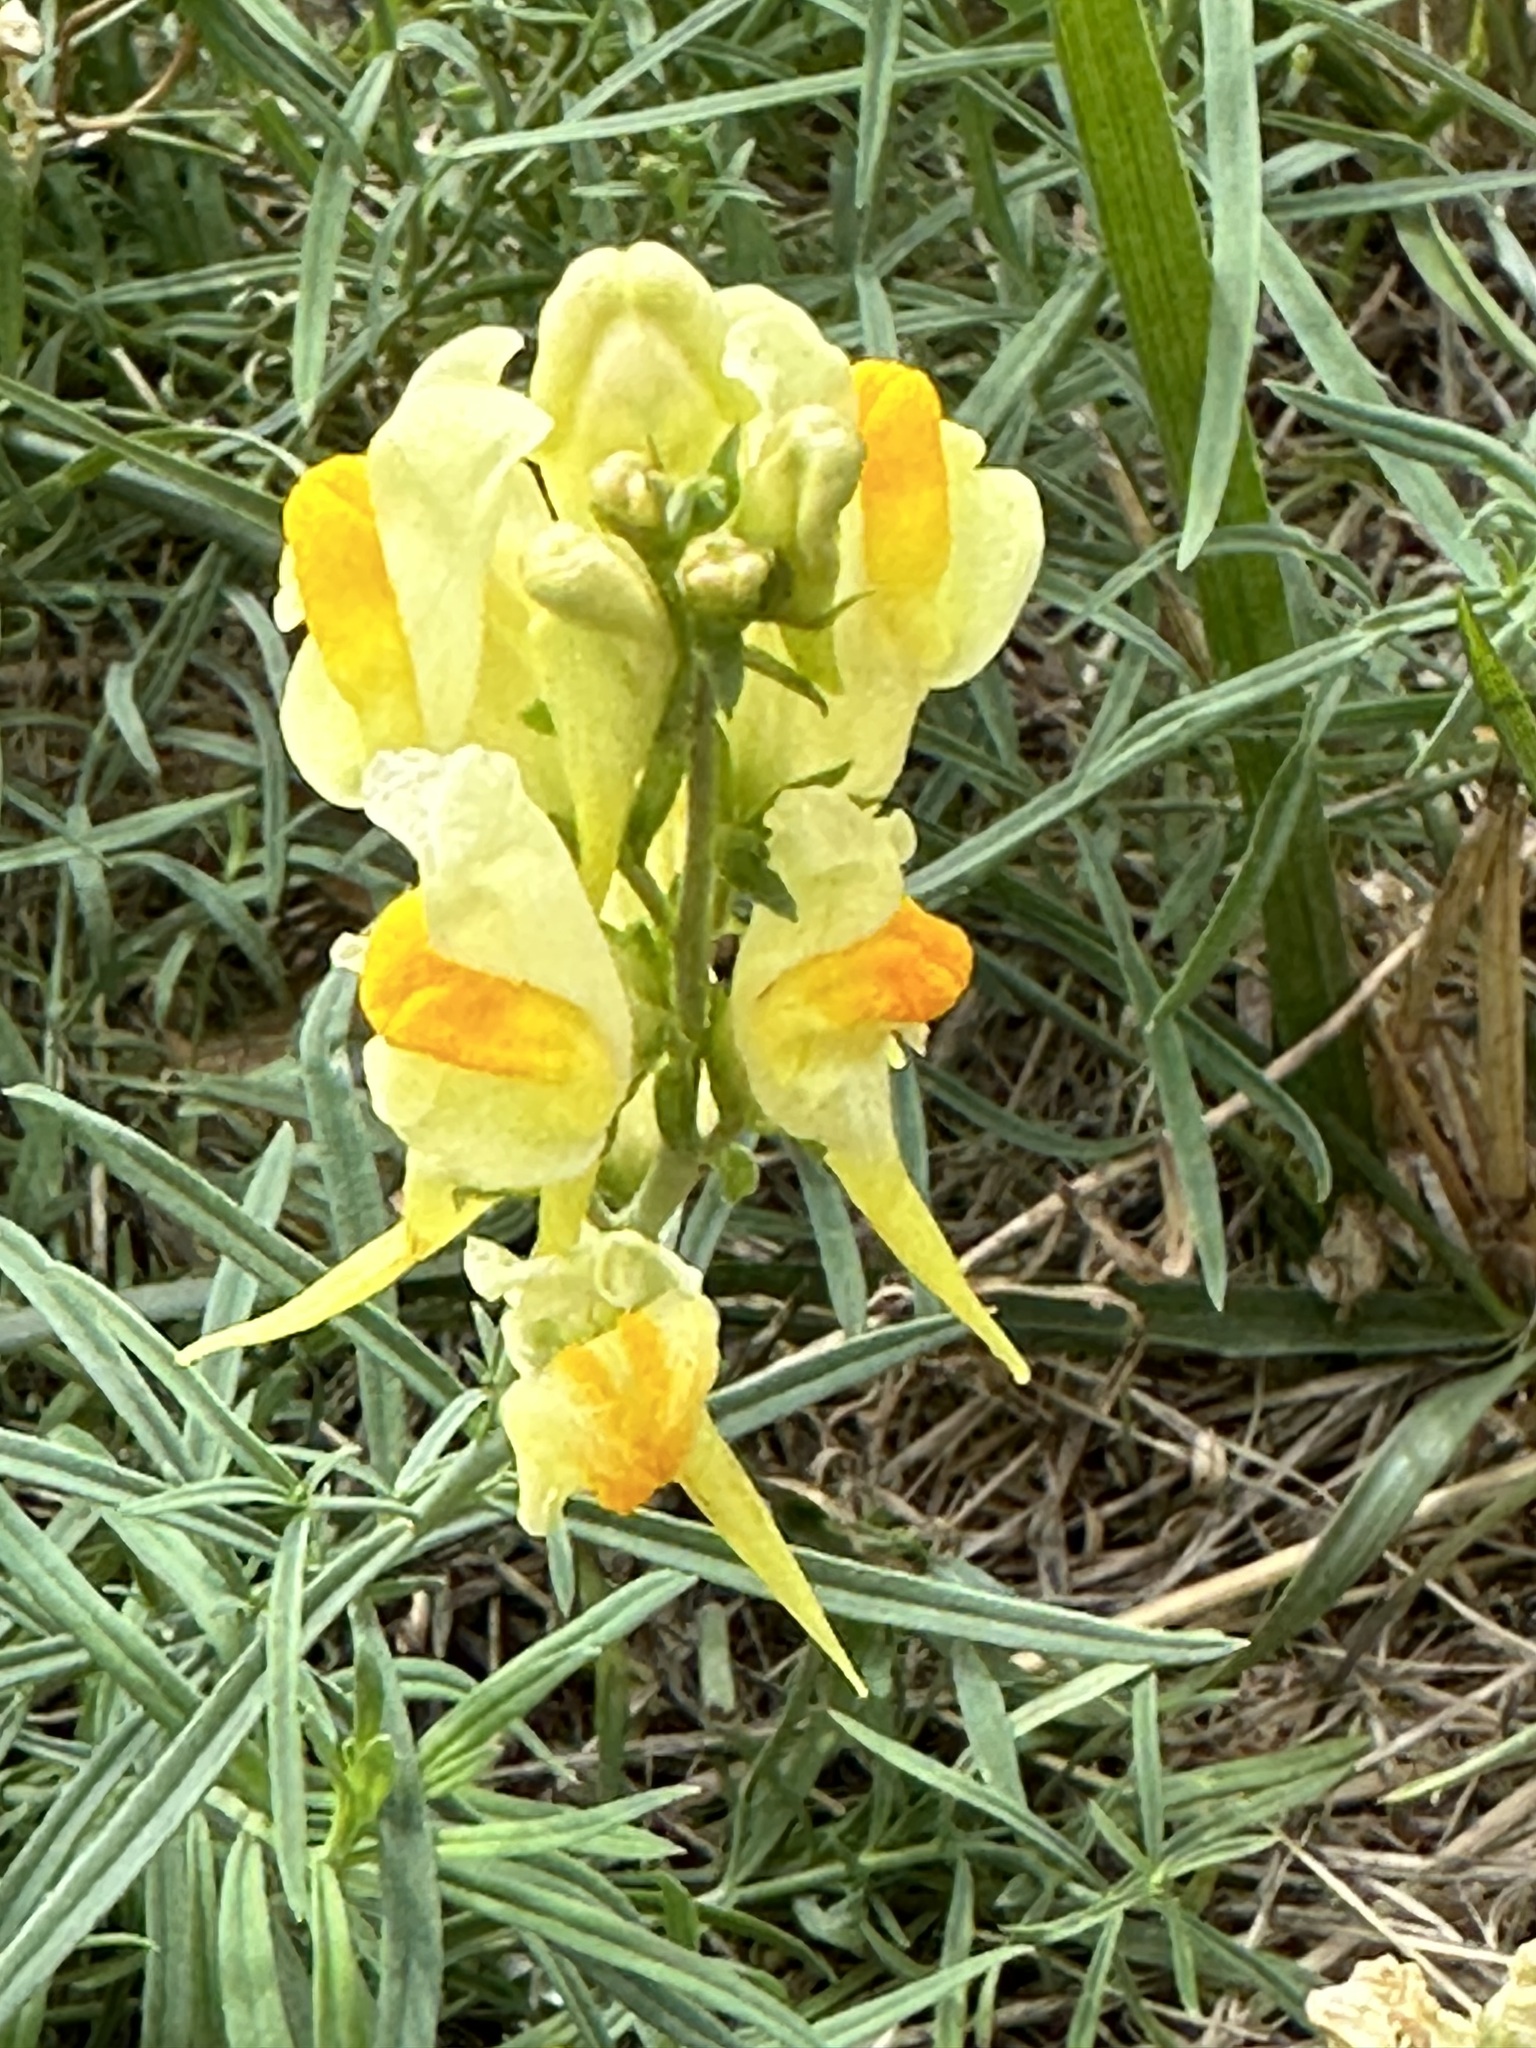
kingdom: Plantae
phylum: Tracheophyta
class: Magnoliopsida
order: Lamiales
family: Plantaginaceae
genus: Linaria
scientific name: Linaria vulgaris
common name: Butter and eggs
